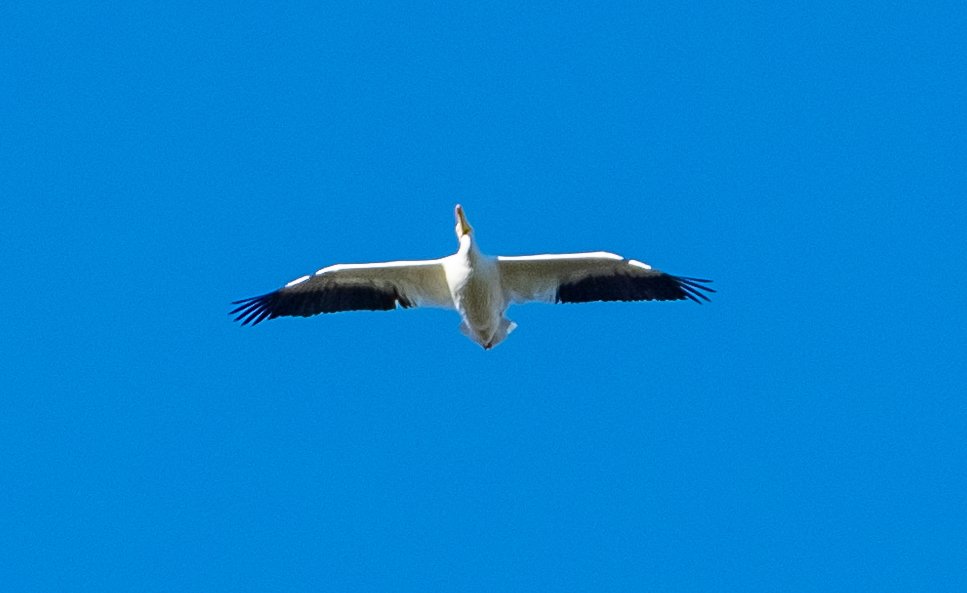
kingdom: Animalia
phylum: Chordata
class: Aves
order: Pelecaniformes
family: Pelecanidae
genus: Pelecanus
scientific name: Pelecanus erythrorhynchos
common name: American white pelican
